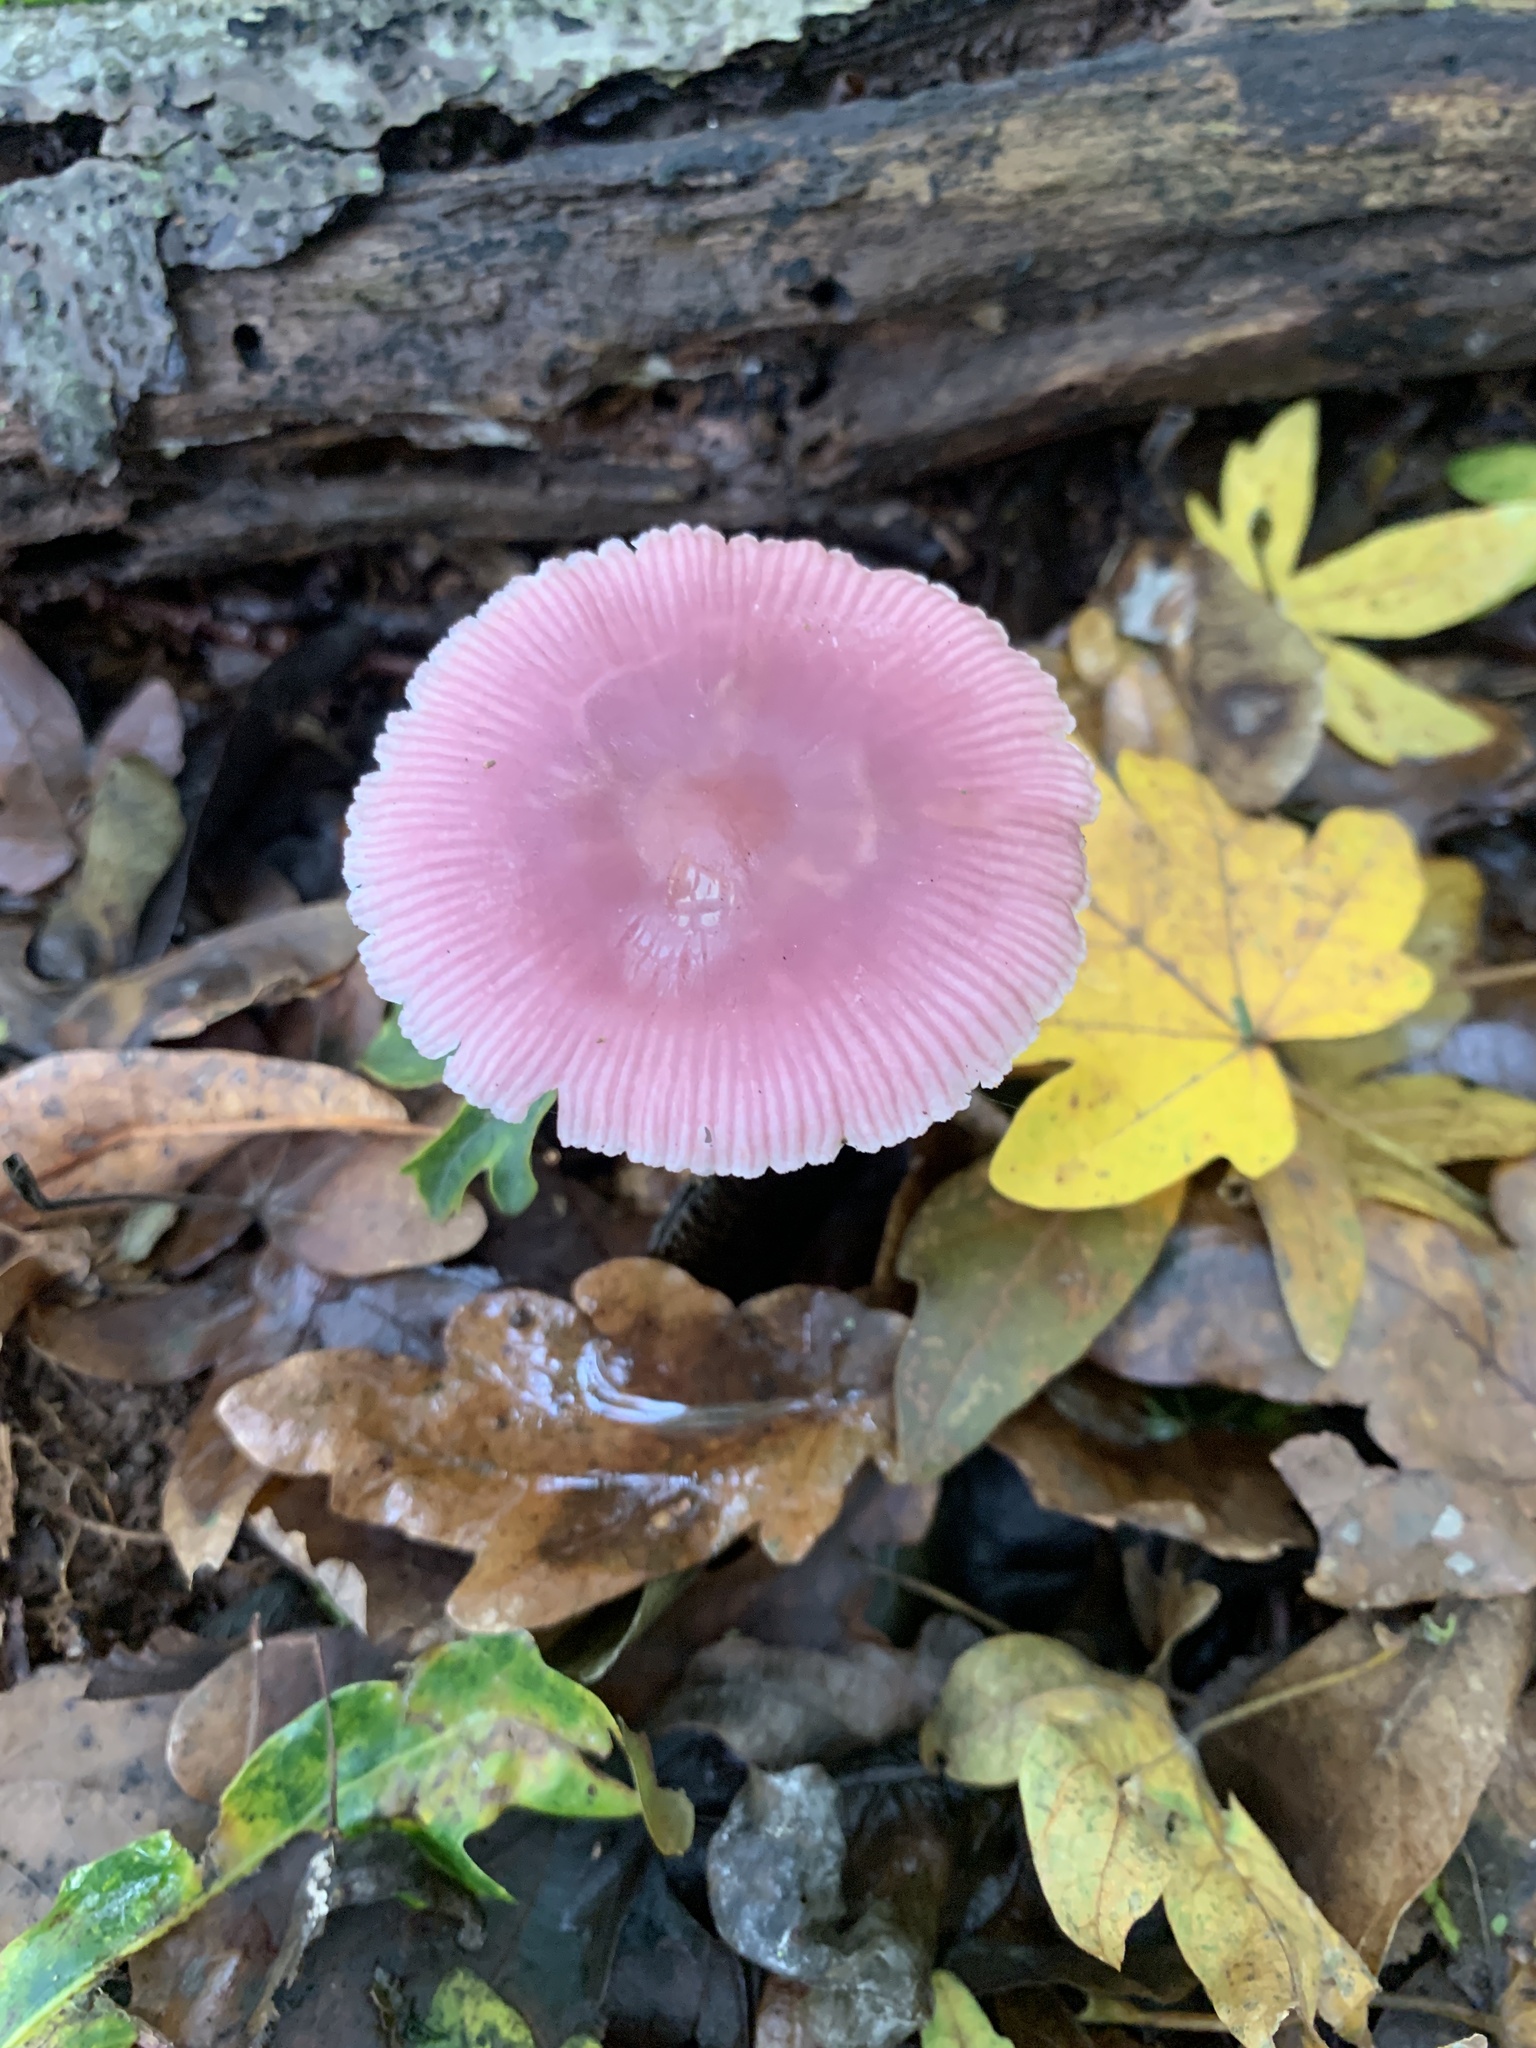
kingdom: Fungi
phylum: Basidiomycota
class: Agaricomycetes
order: Agaricales
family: Mycenaceae
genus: Mycena
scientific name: Mycena rosea
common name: Rosy bonnet
